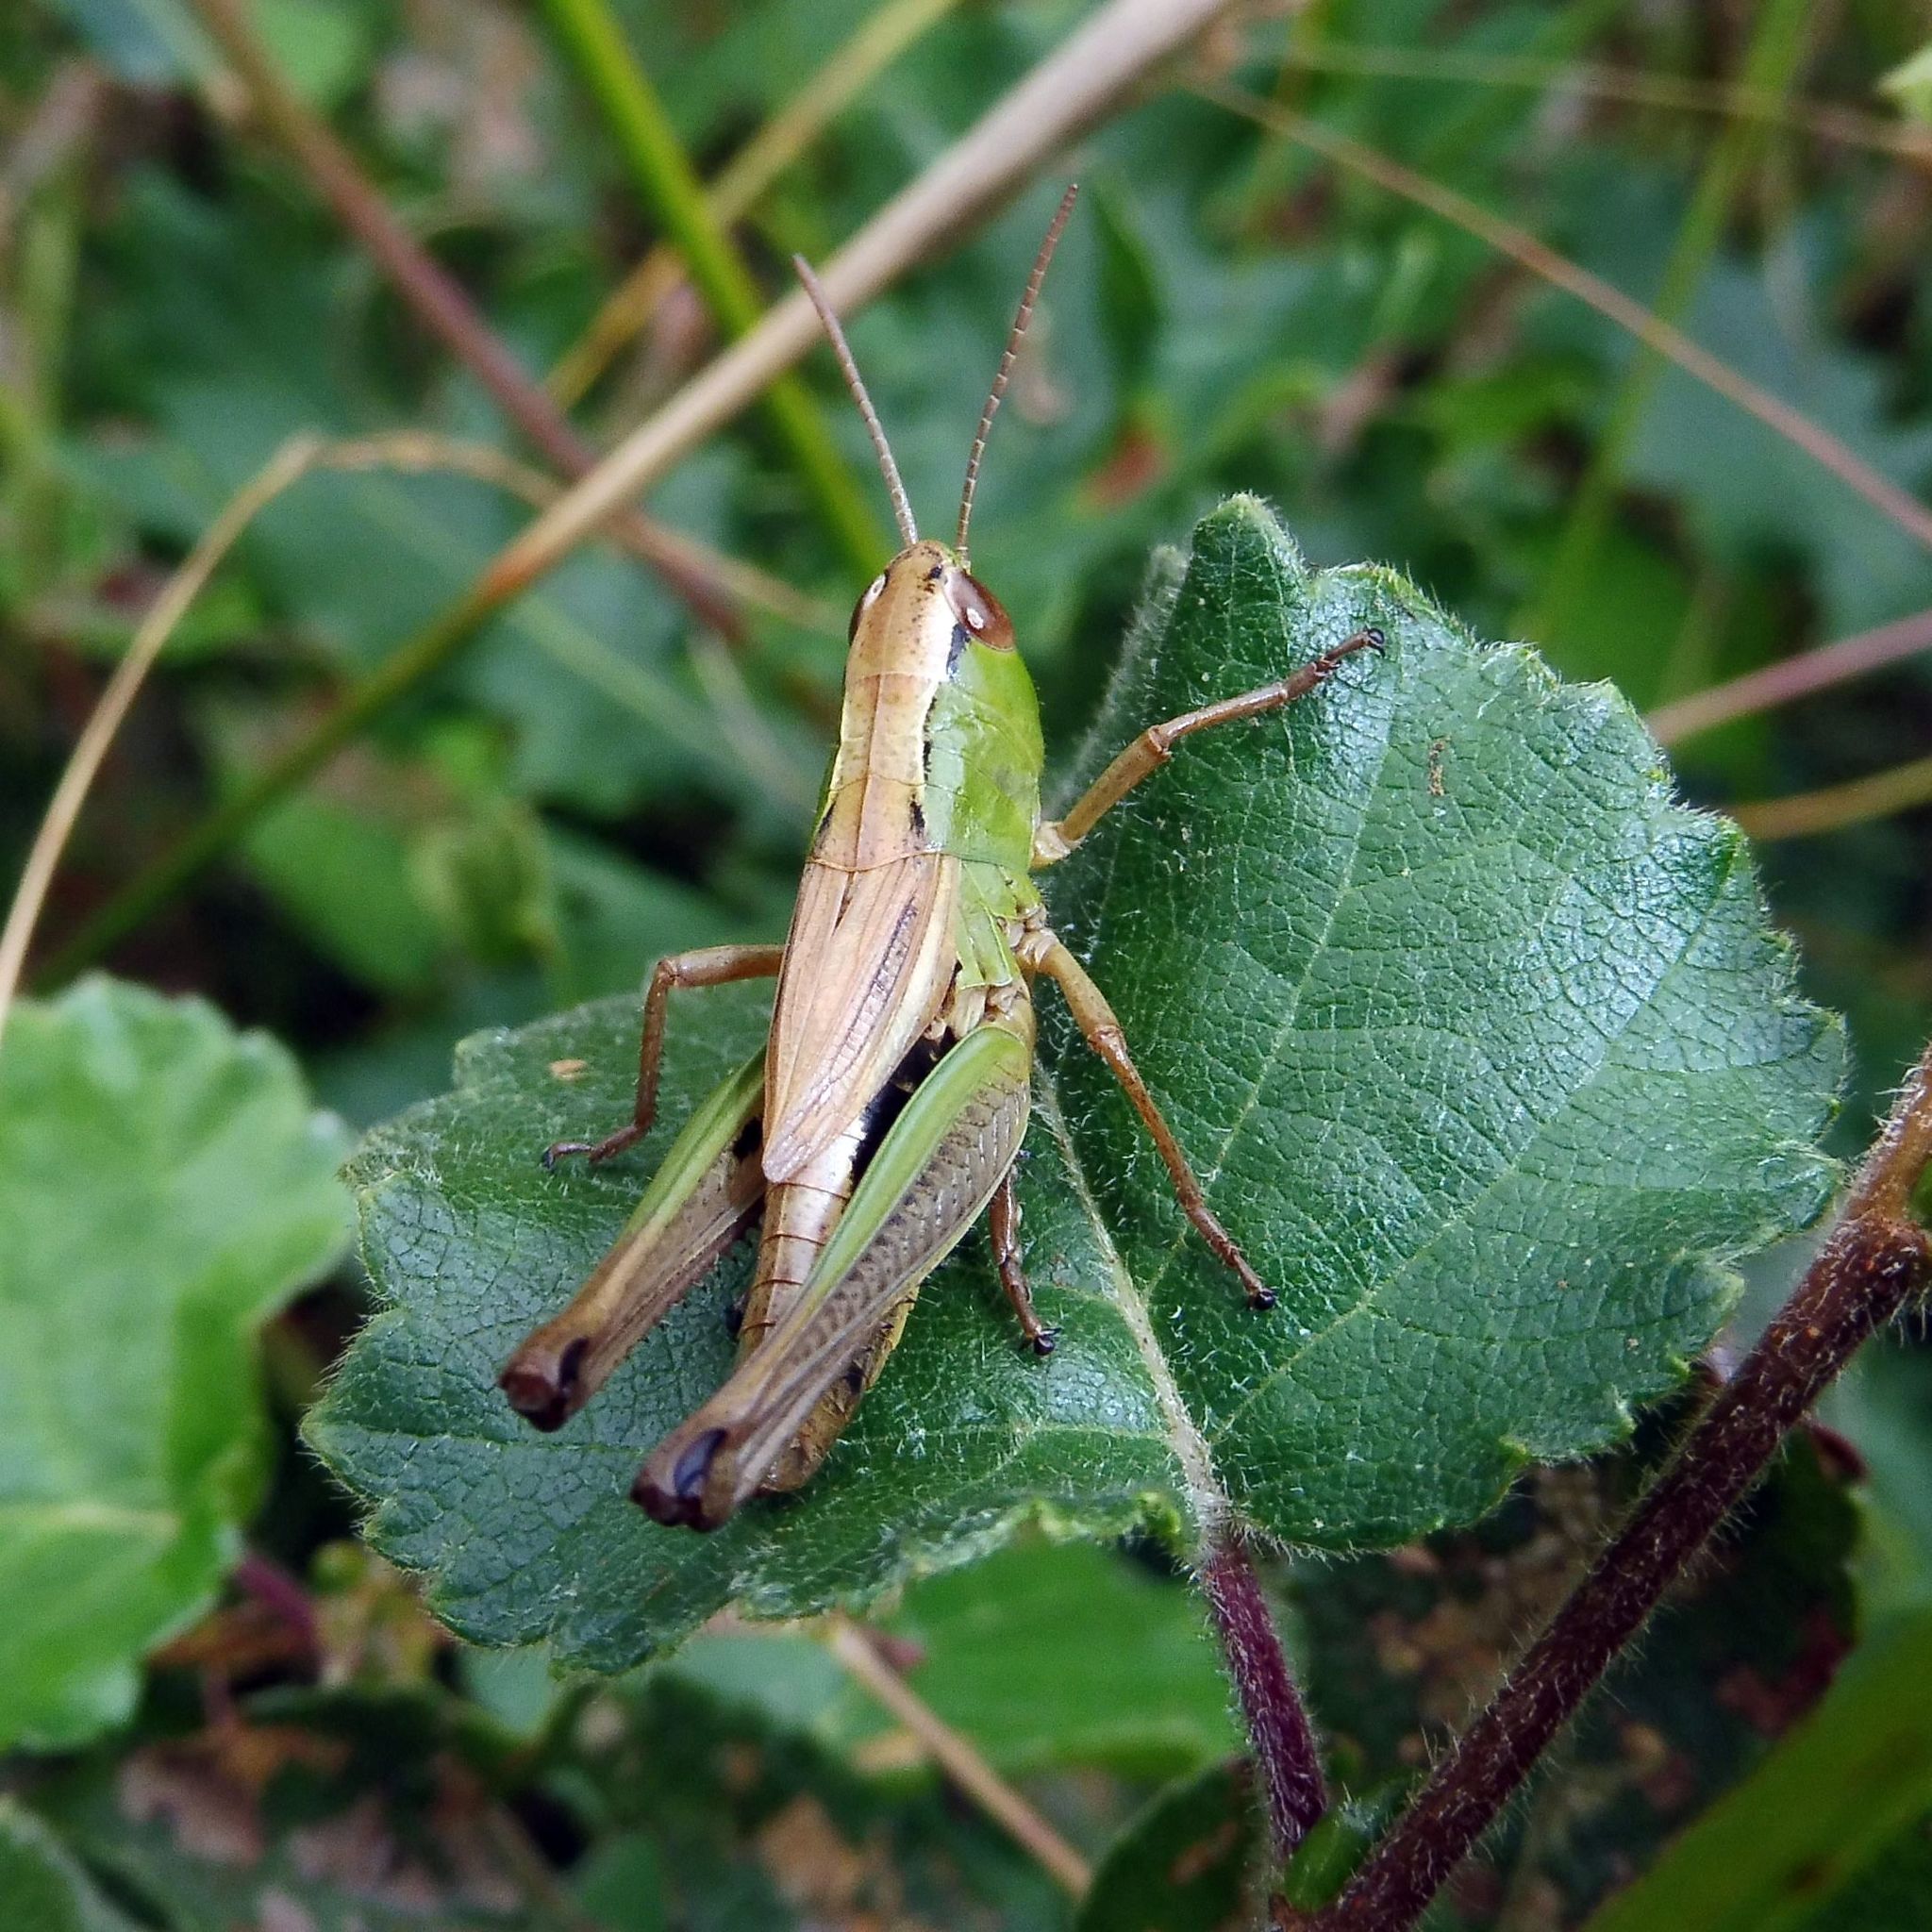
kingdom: Animalia
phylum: Arthropoda
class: Insecta
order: Orthoptera
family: Acrididae
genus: Pseudochorthippus
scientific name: Pseudochorthippus parallelus
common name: Meadow grasshopper
